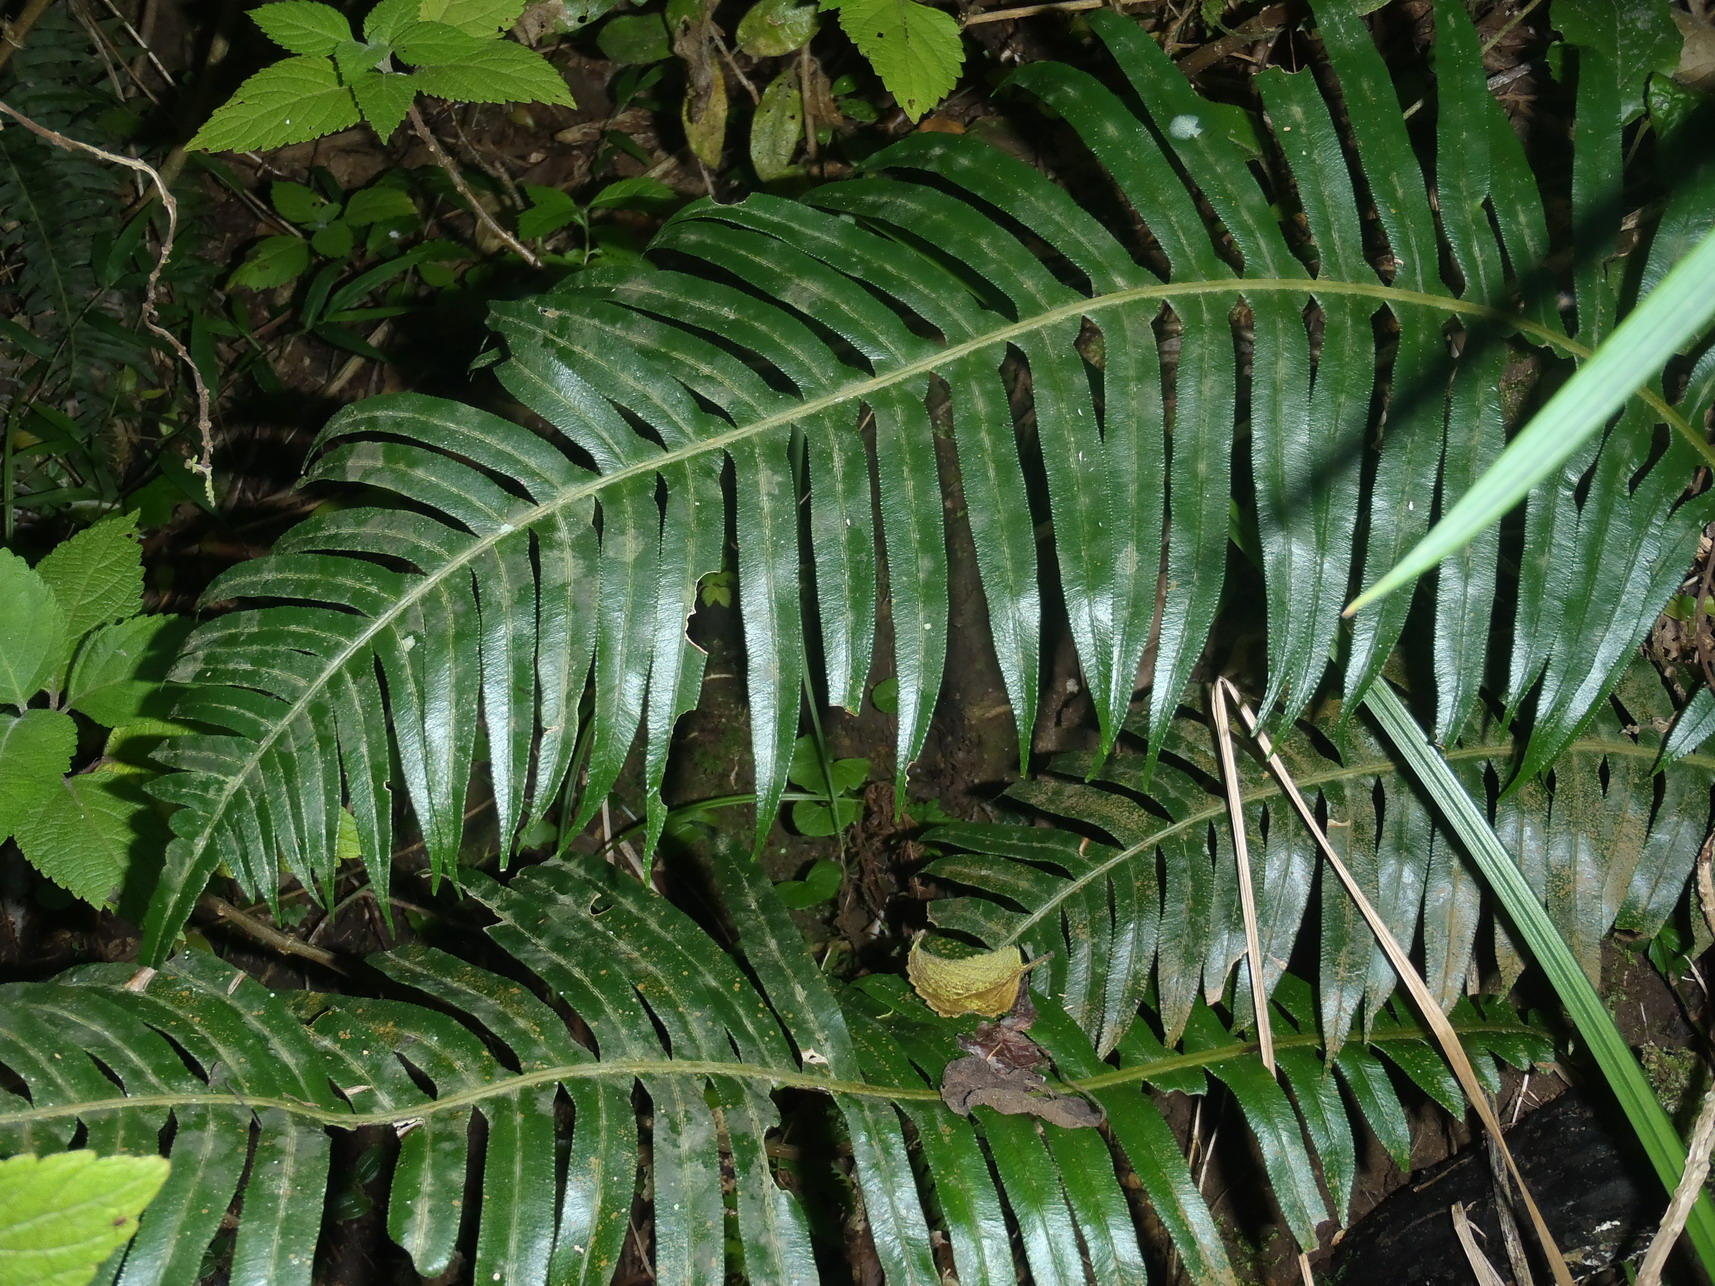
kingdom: Plantae
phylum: Tracheophyta
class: Polypodiopsida
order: Polypodiales
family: Blechnaceae
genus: Lomaridium
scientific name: Lomaridium attenuatum
